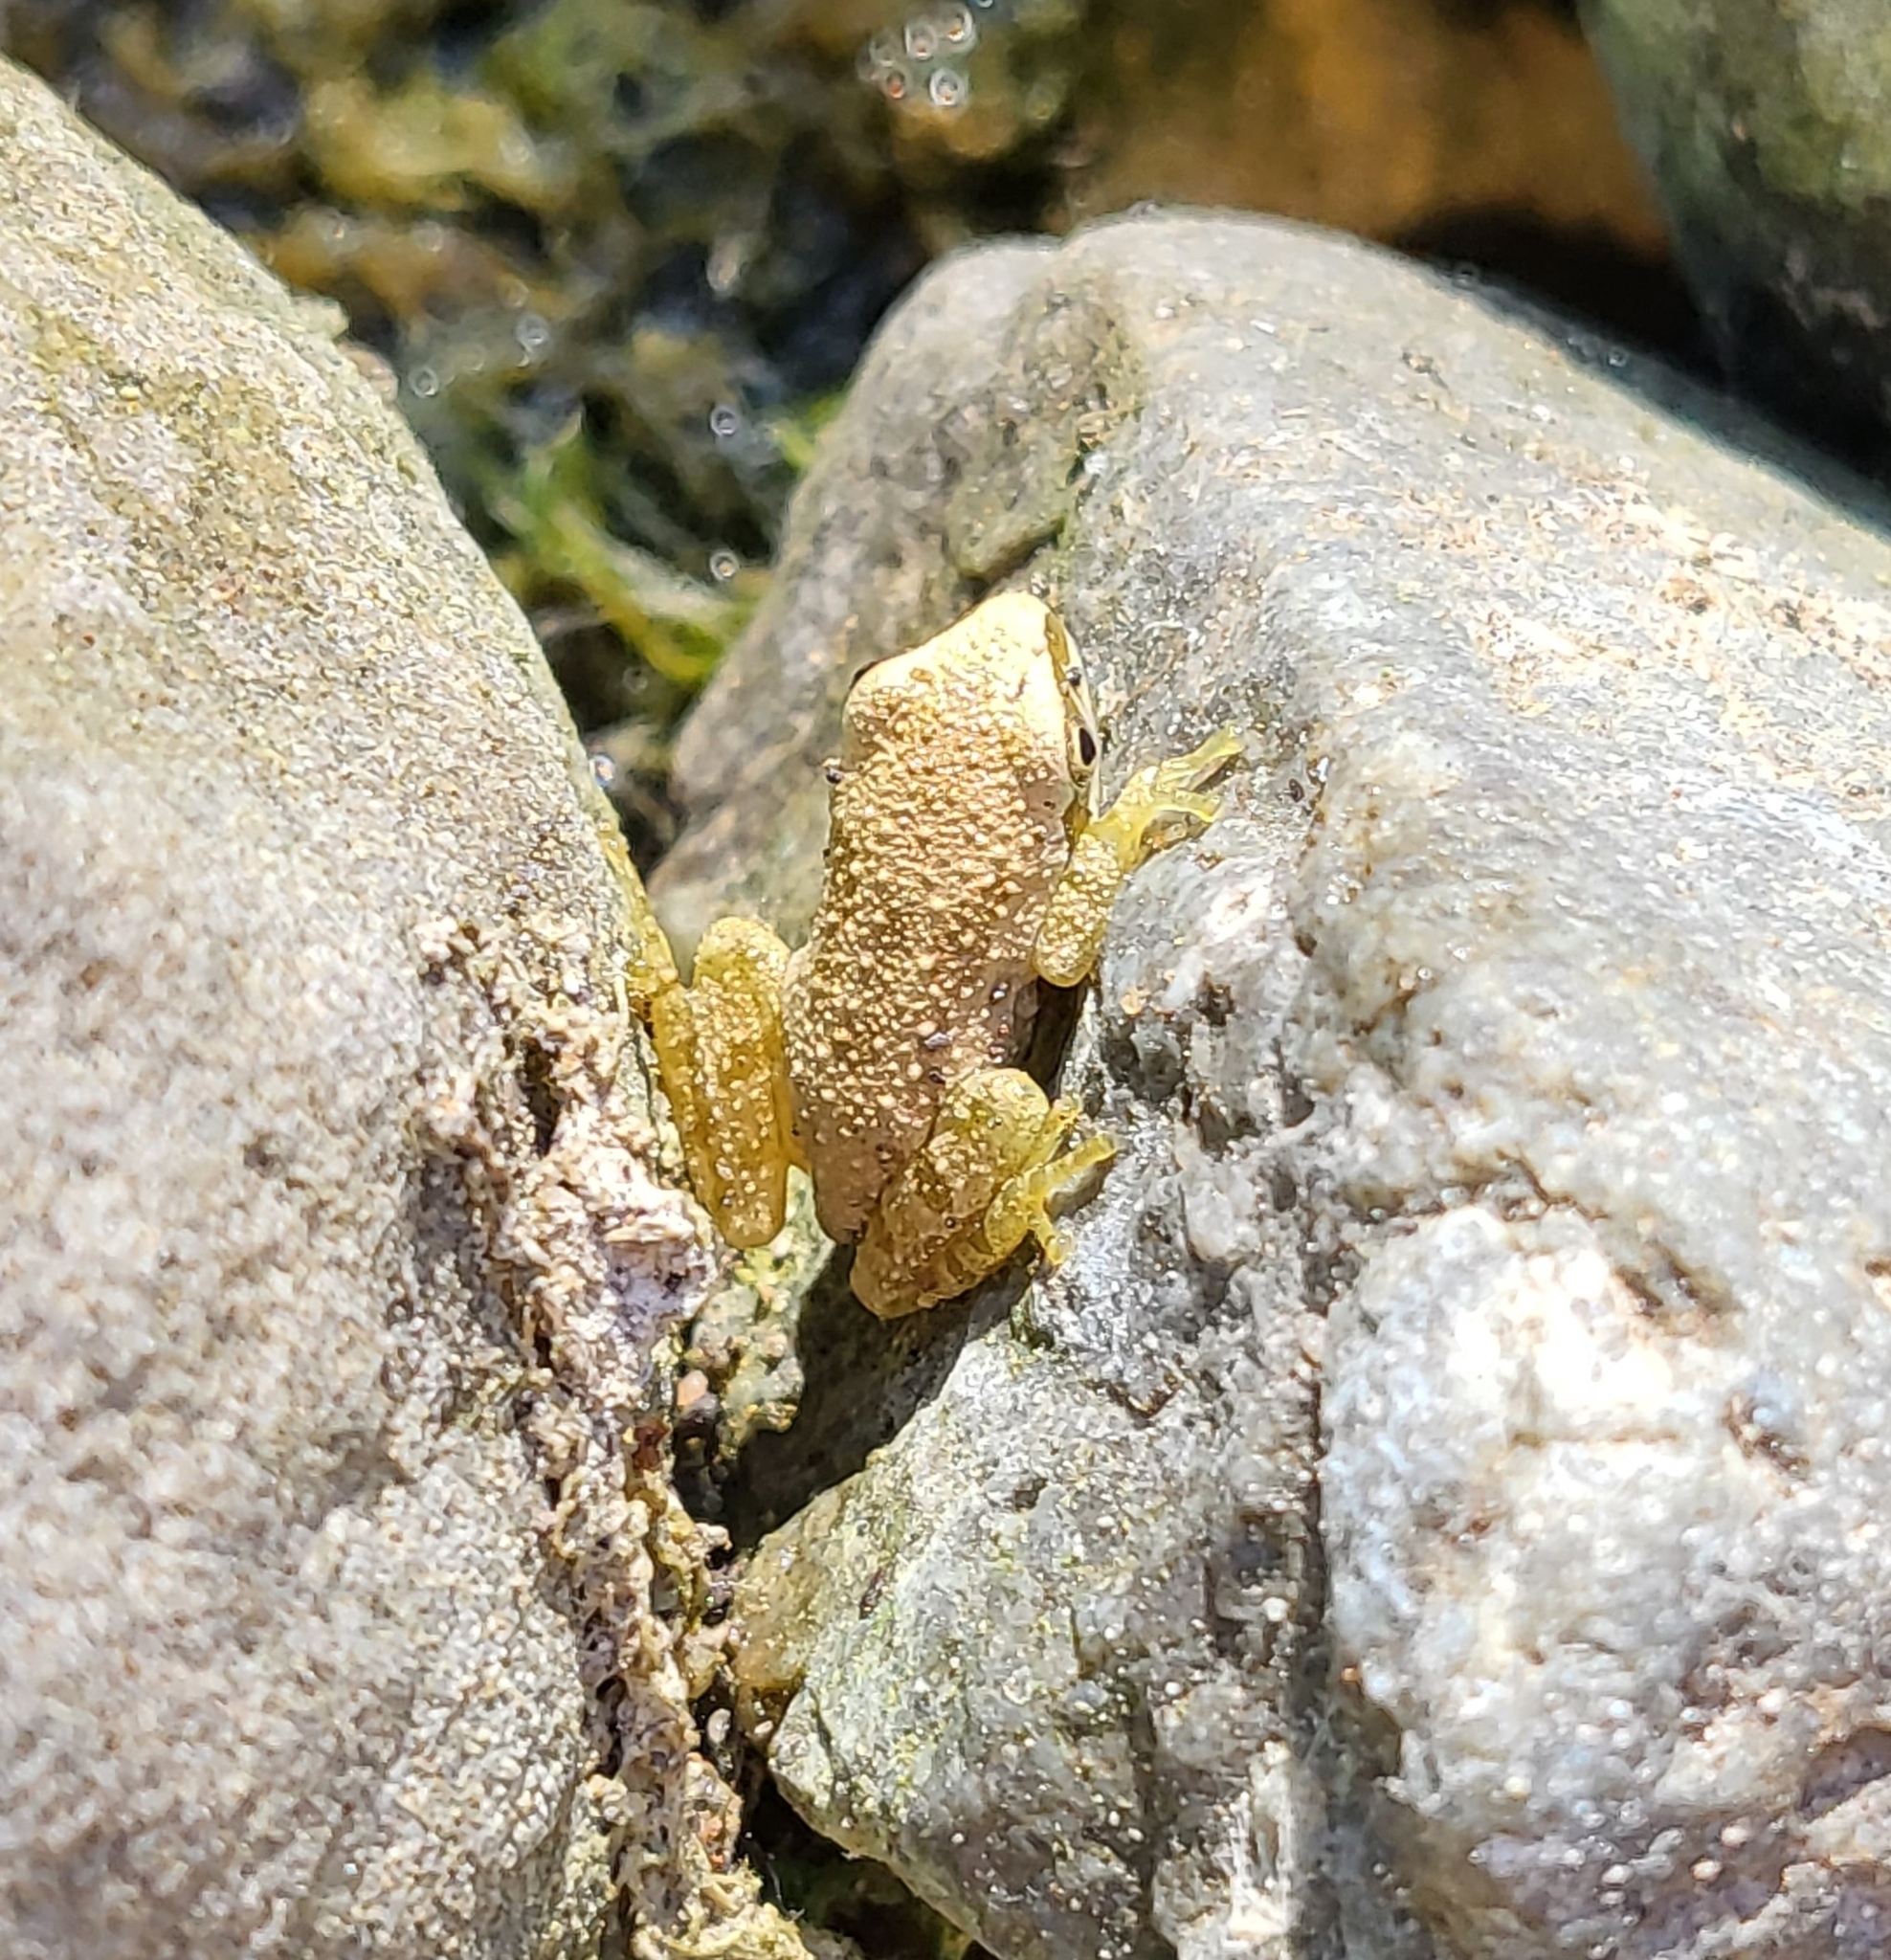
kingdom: Animalia
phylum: Chordata
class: Amphibia
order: Anura
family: Hylidae
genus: Pseudacris
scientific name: Pseudacris regilla
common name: Pacific chorus frog
